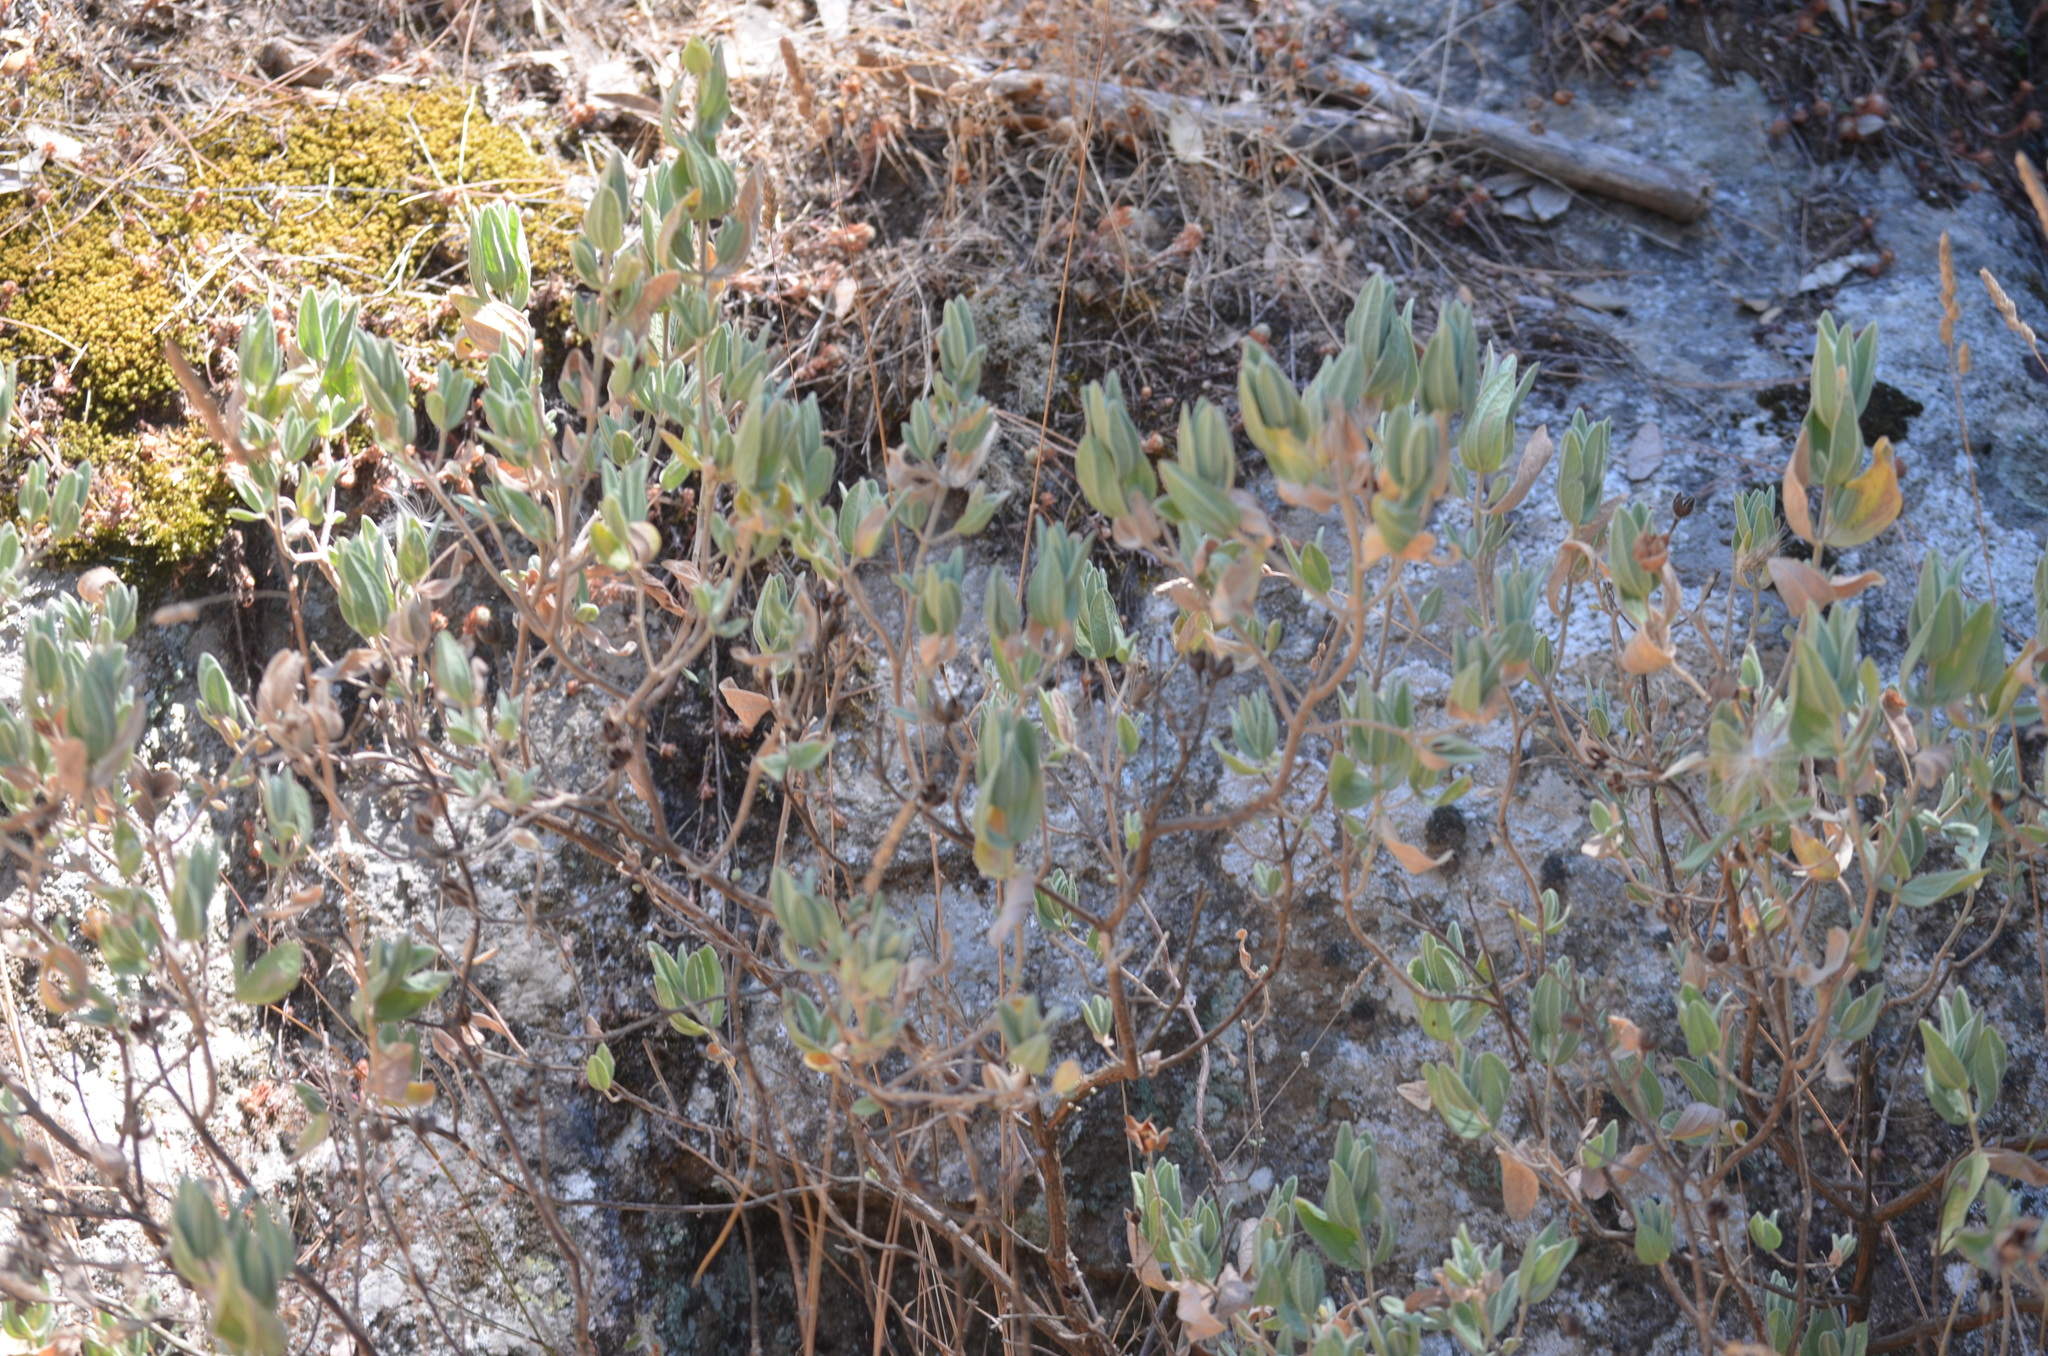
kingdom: Plantae
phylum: Tracheophyta
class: Magnoliopsida
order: Malvales
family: Cistaceae
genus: Cistus
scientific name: Cistus albidus
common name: White-leaf rock-rose
